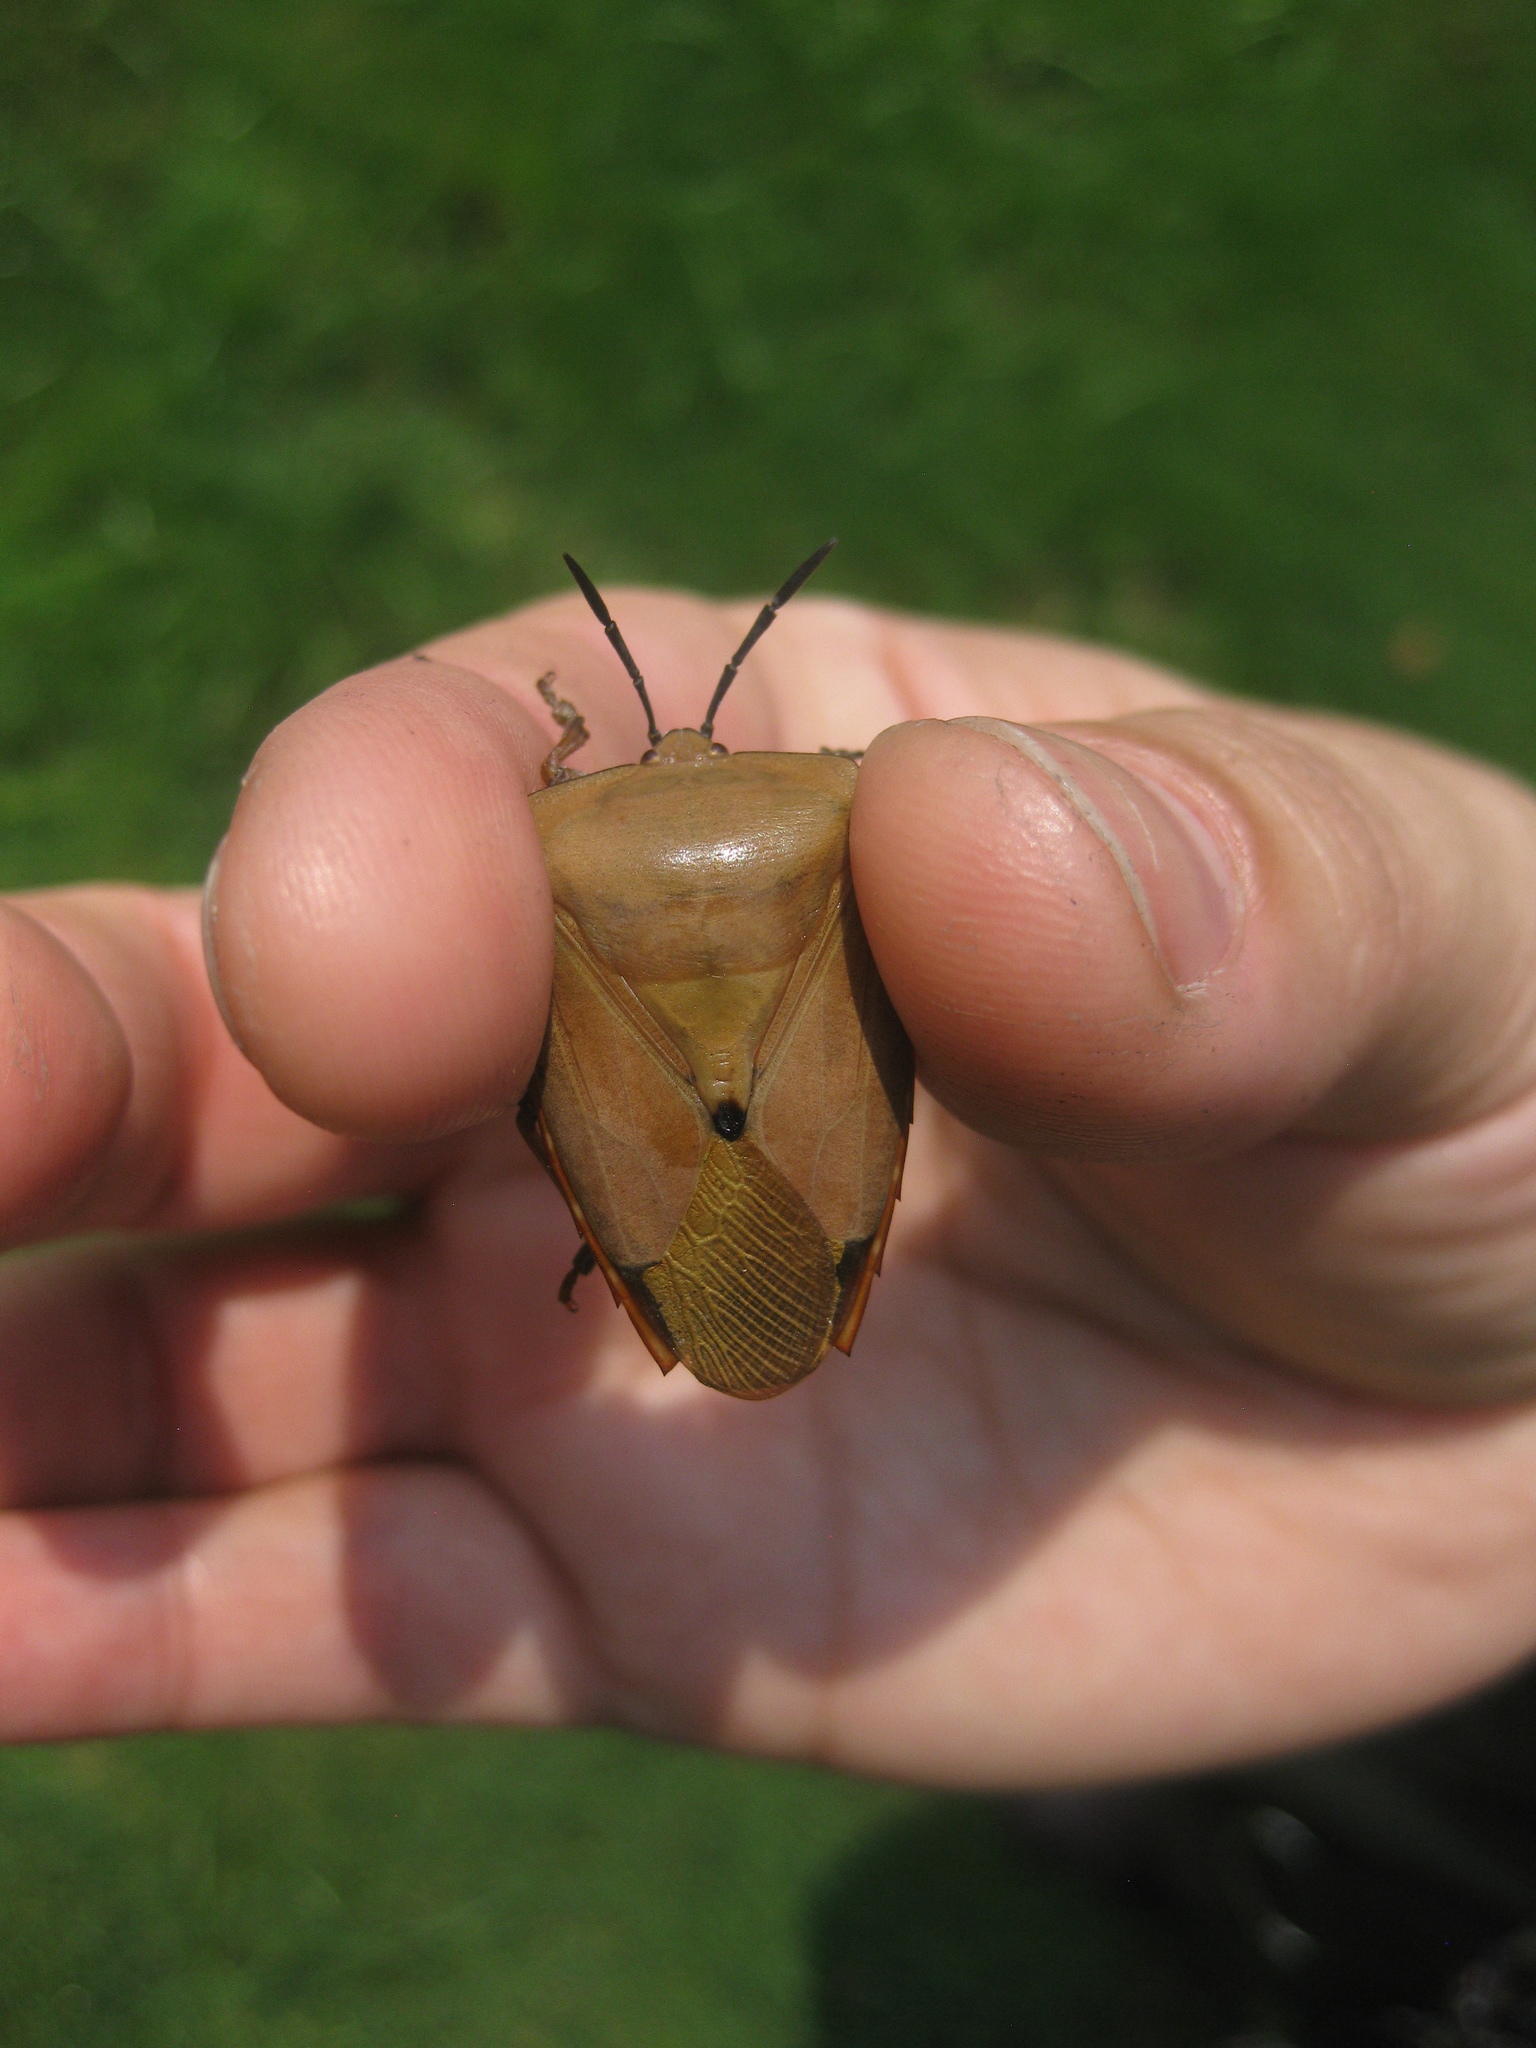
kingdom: Animalia
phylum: Arthropoda
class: Insecta
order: Hemiptera
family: Tessaratomidae
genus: Tessaratoma
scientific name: Tessaratoma papillosa
